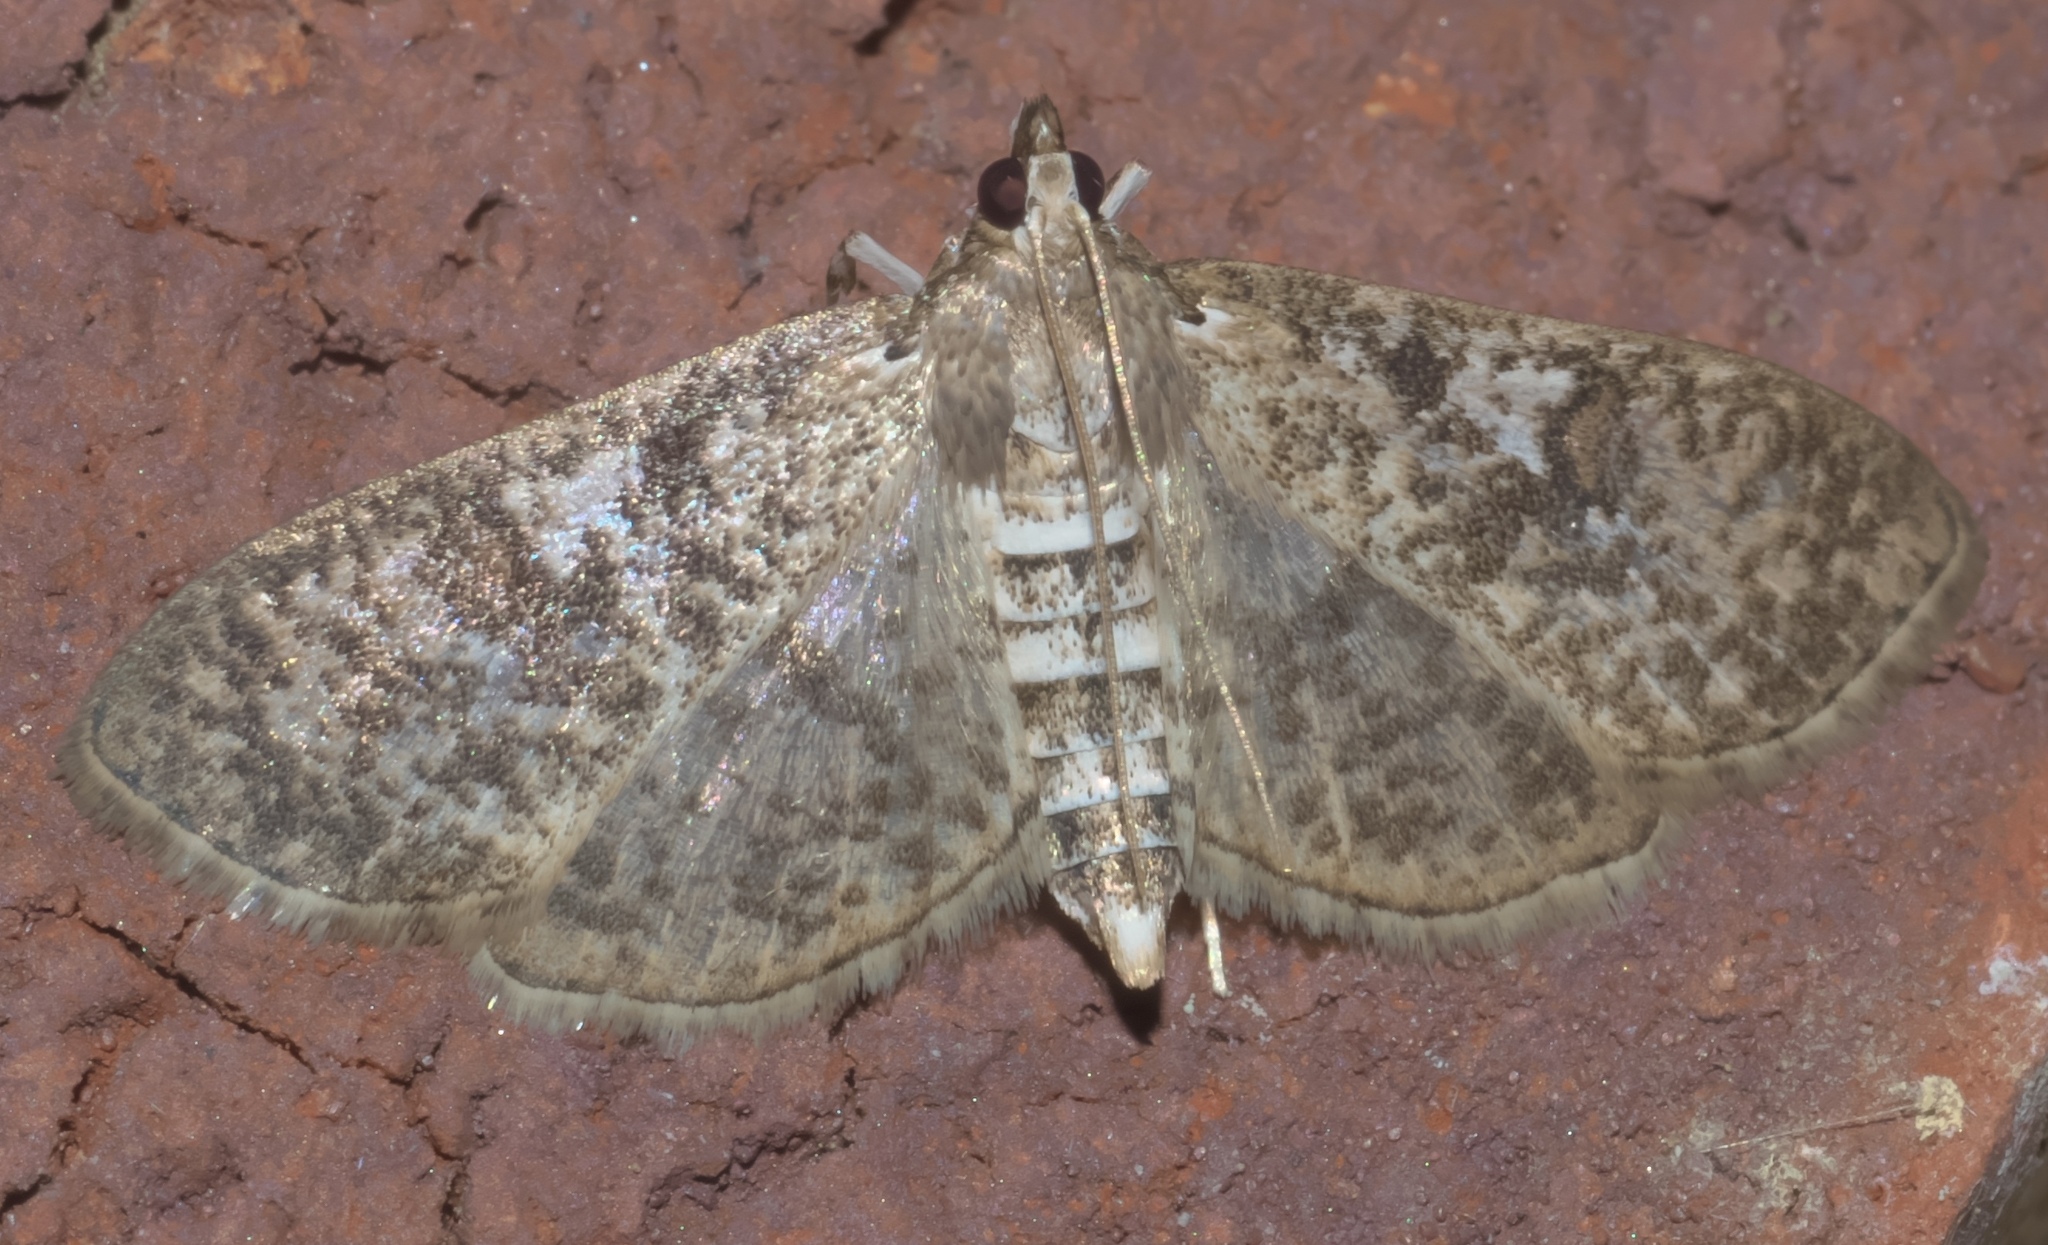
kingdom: Animalia
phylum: Arthropoda
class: Insecta
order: Lepidoptera
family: Crambidae
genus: Palpita
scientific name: Palpita freemanalis
